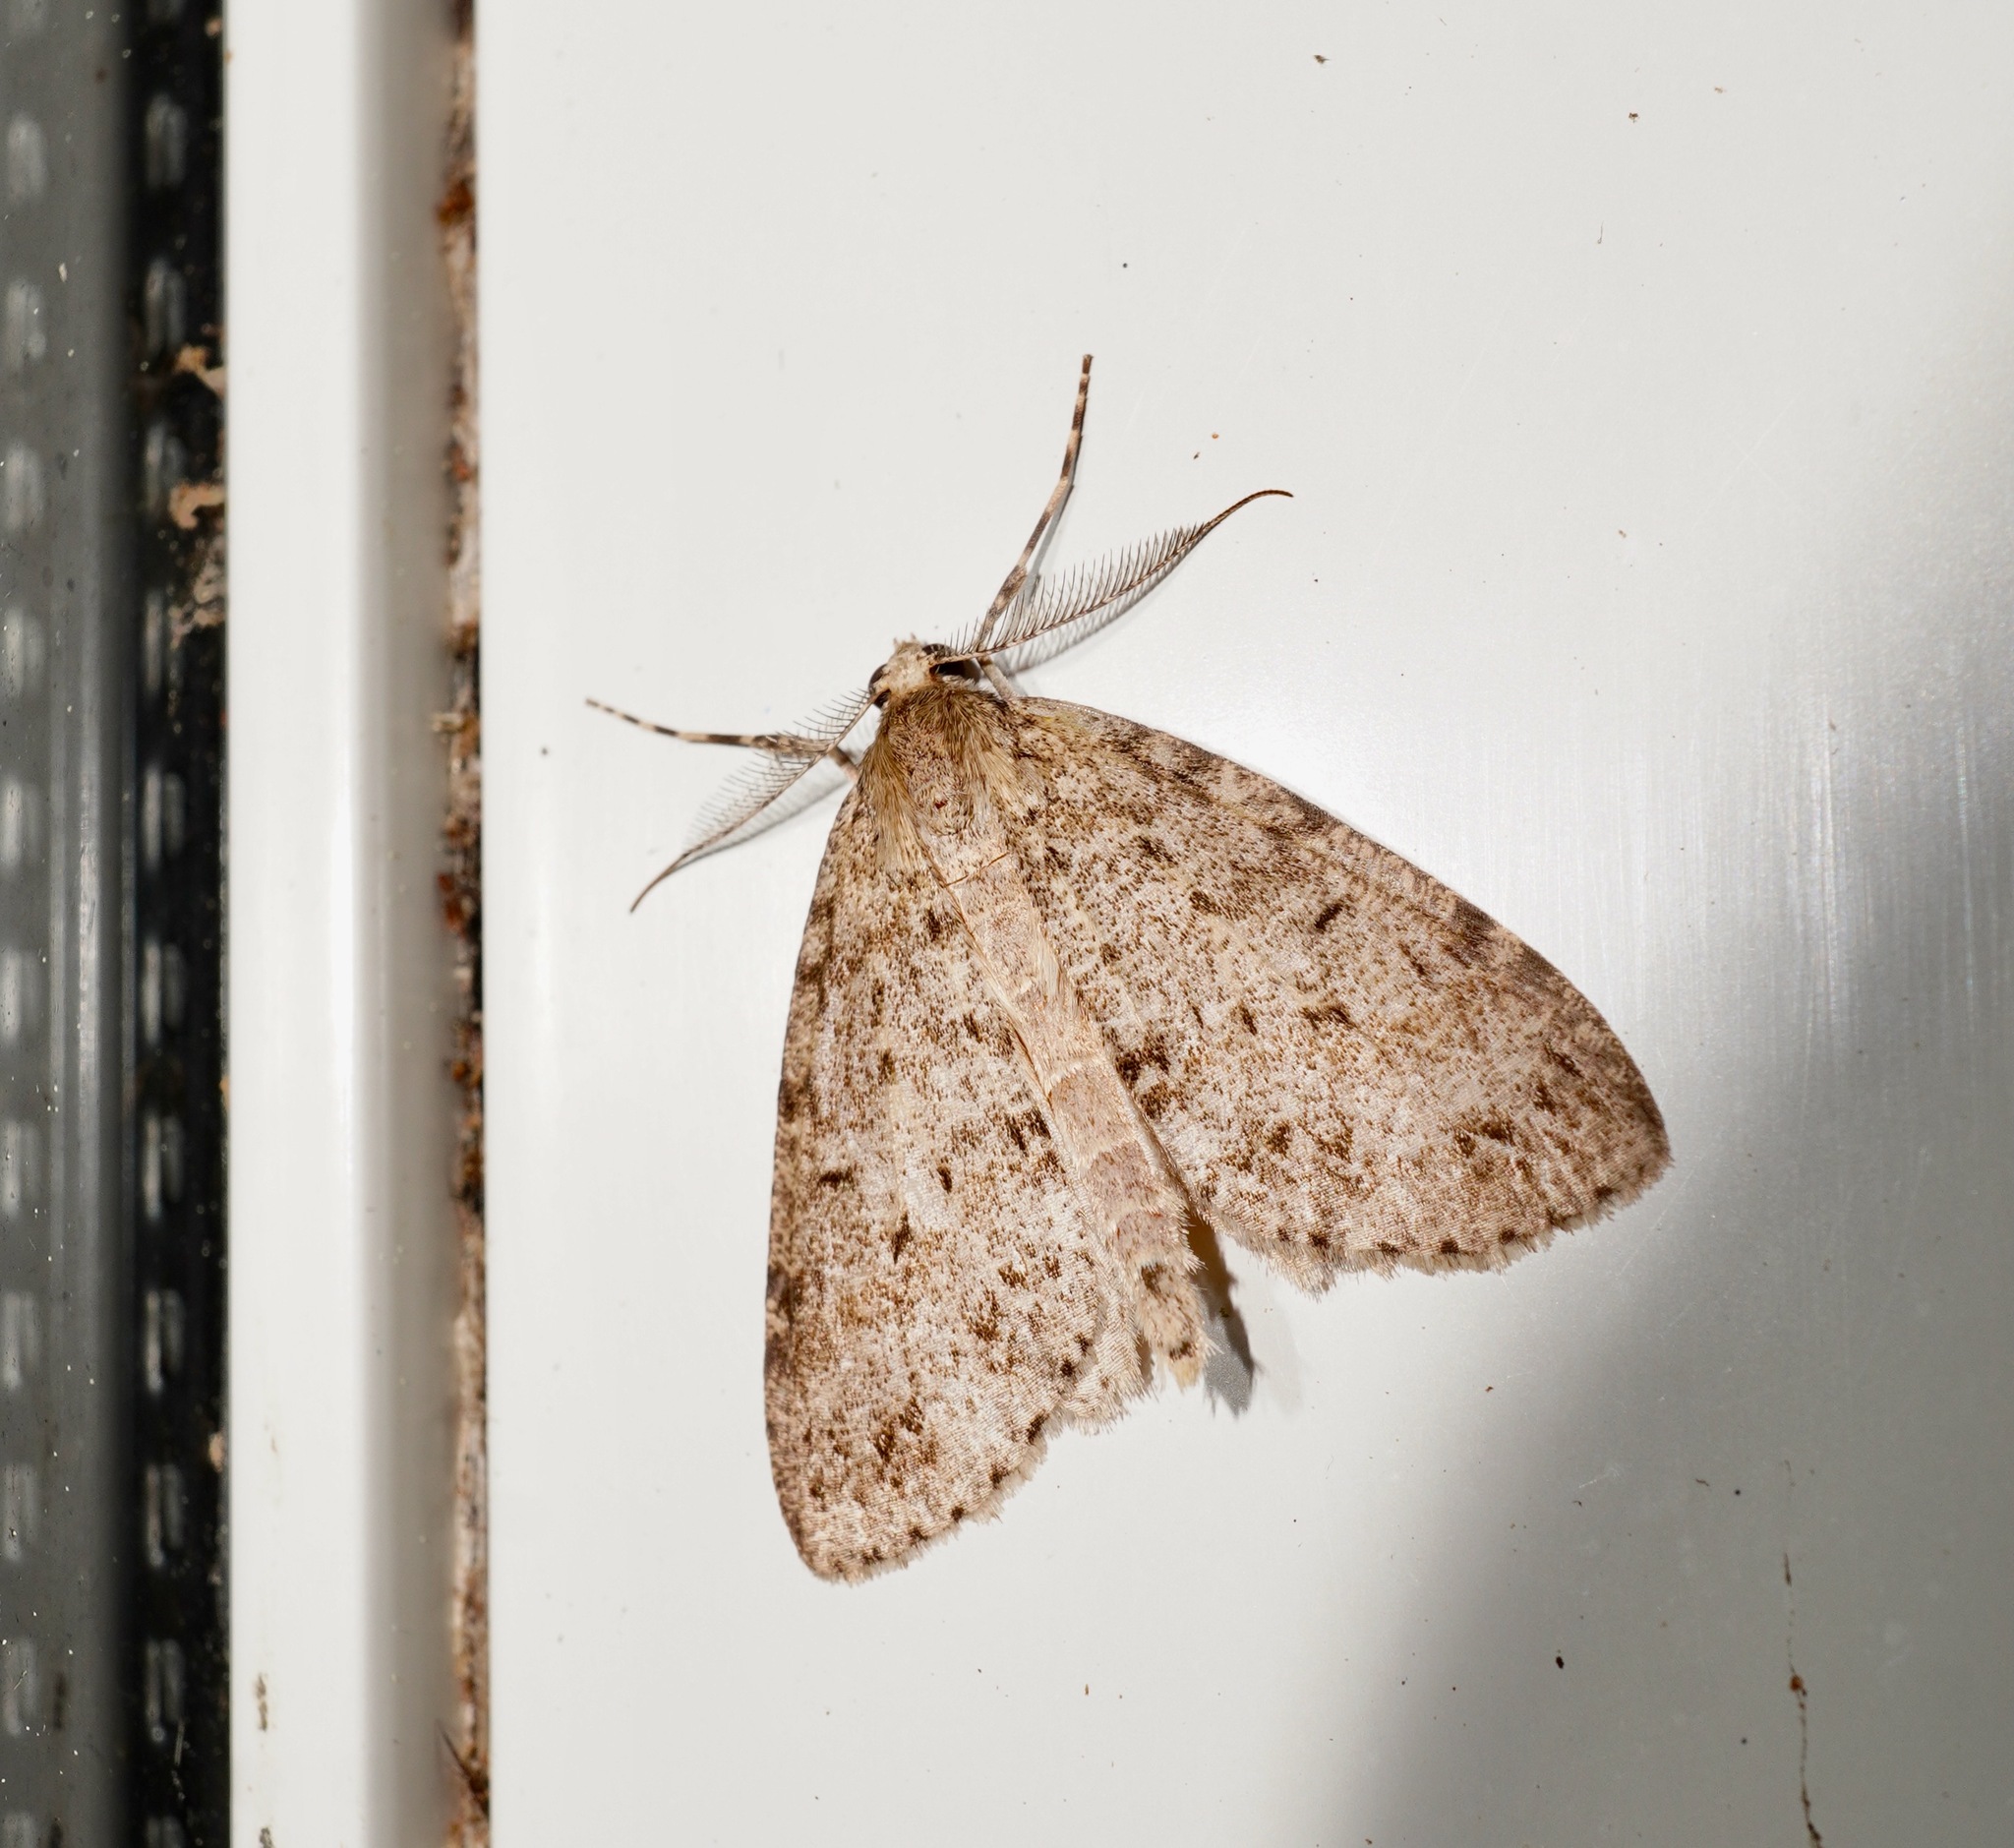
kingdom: Animalia
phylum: Arthropoda
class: Insecta
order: Lepidoptera
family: Geometridae
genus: Pseudocoremia
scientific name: Pseudocoremia fenerata
